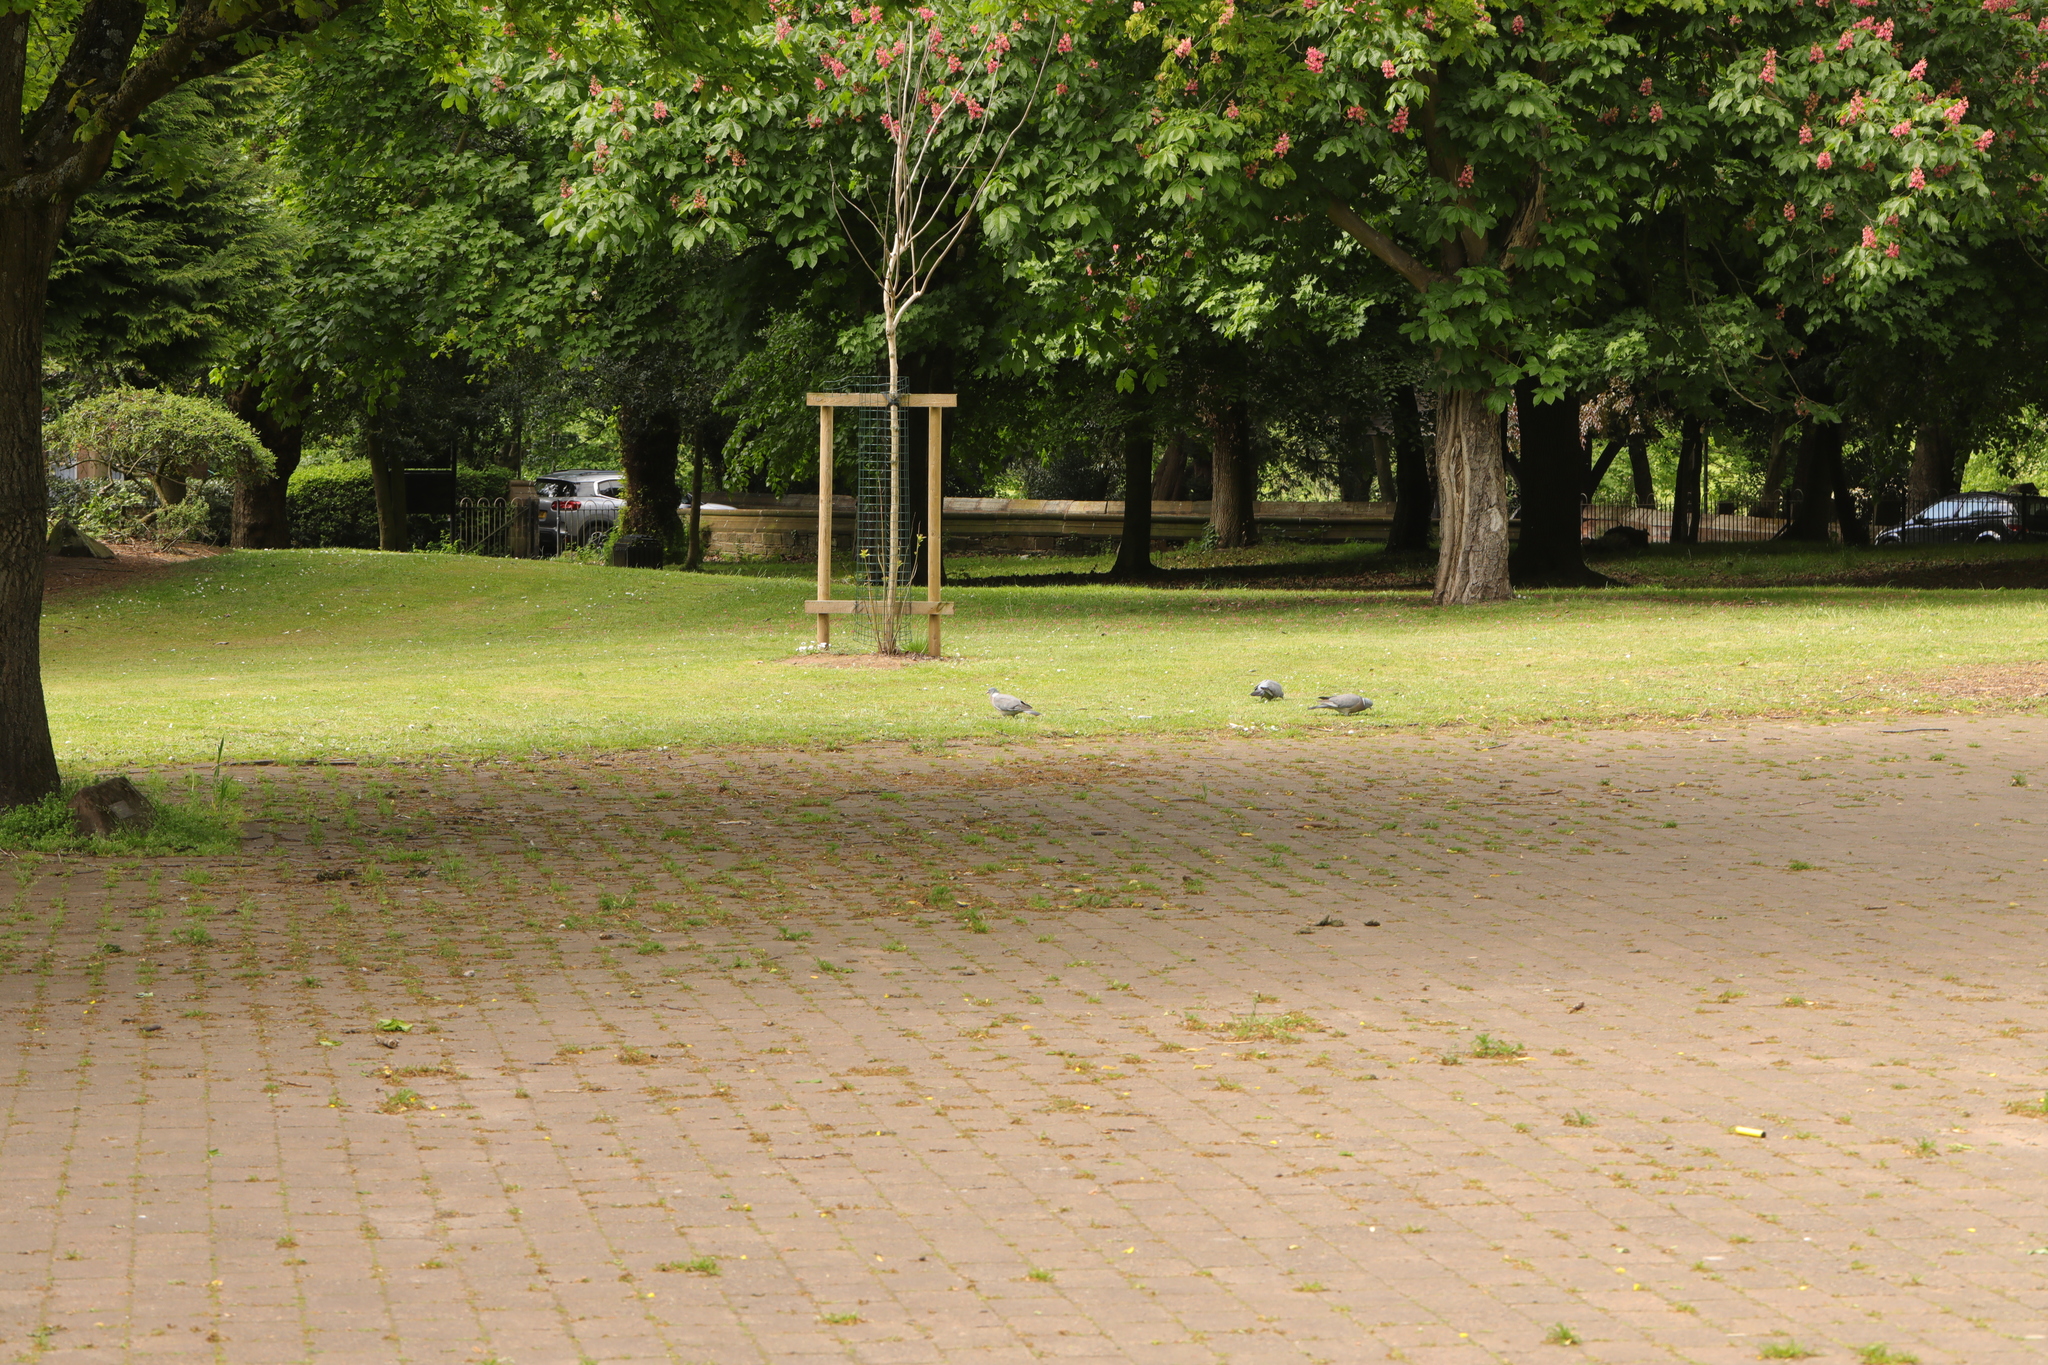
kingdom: Animalia
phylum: Chordata
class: Aves
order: Columbiformes
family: Columbidae
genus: Columba
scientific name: Columba palumbus
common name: Common wood pigeon
